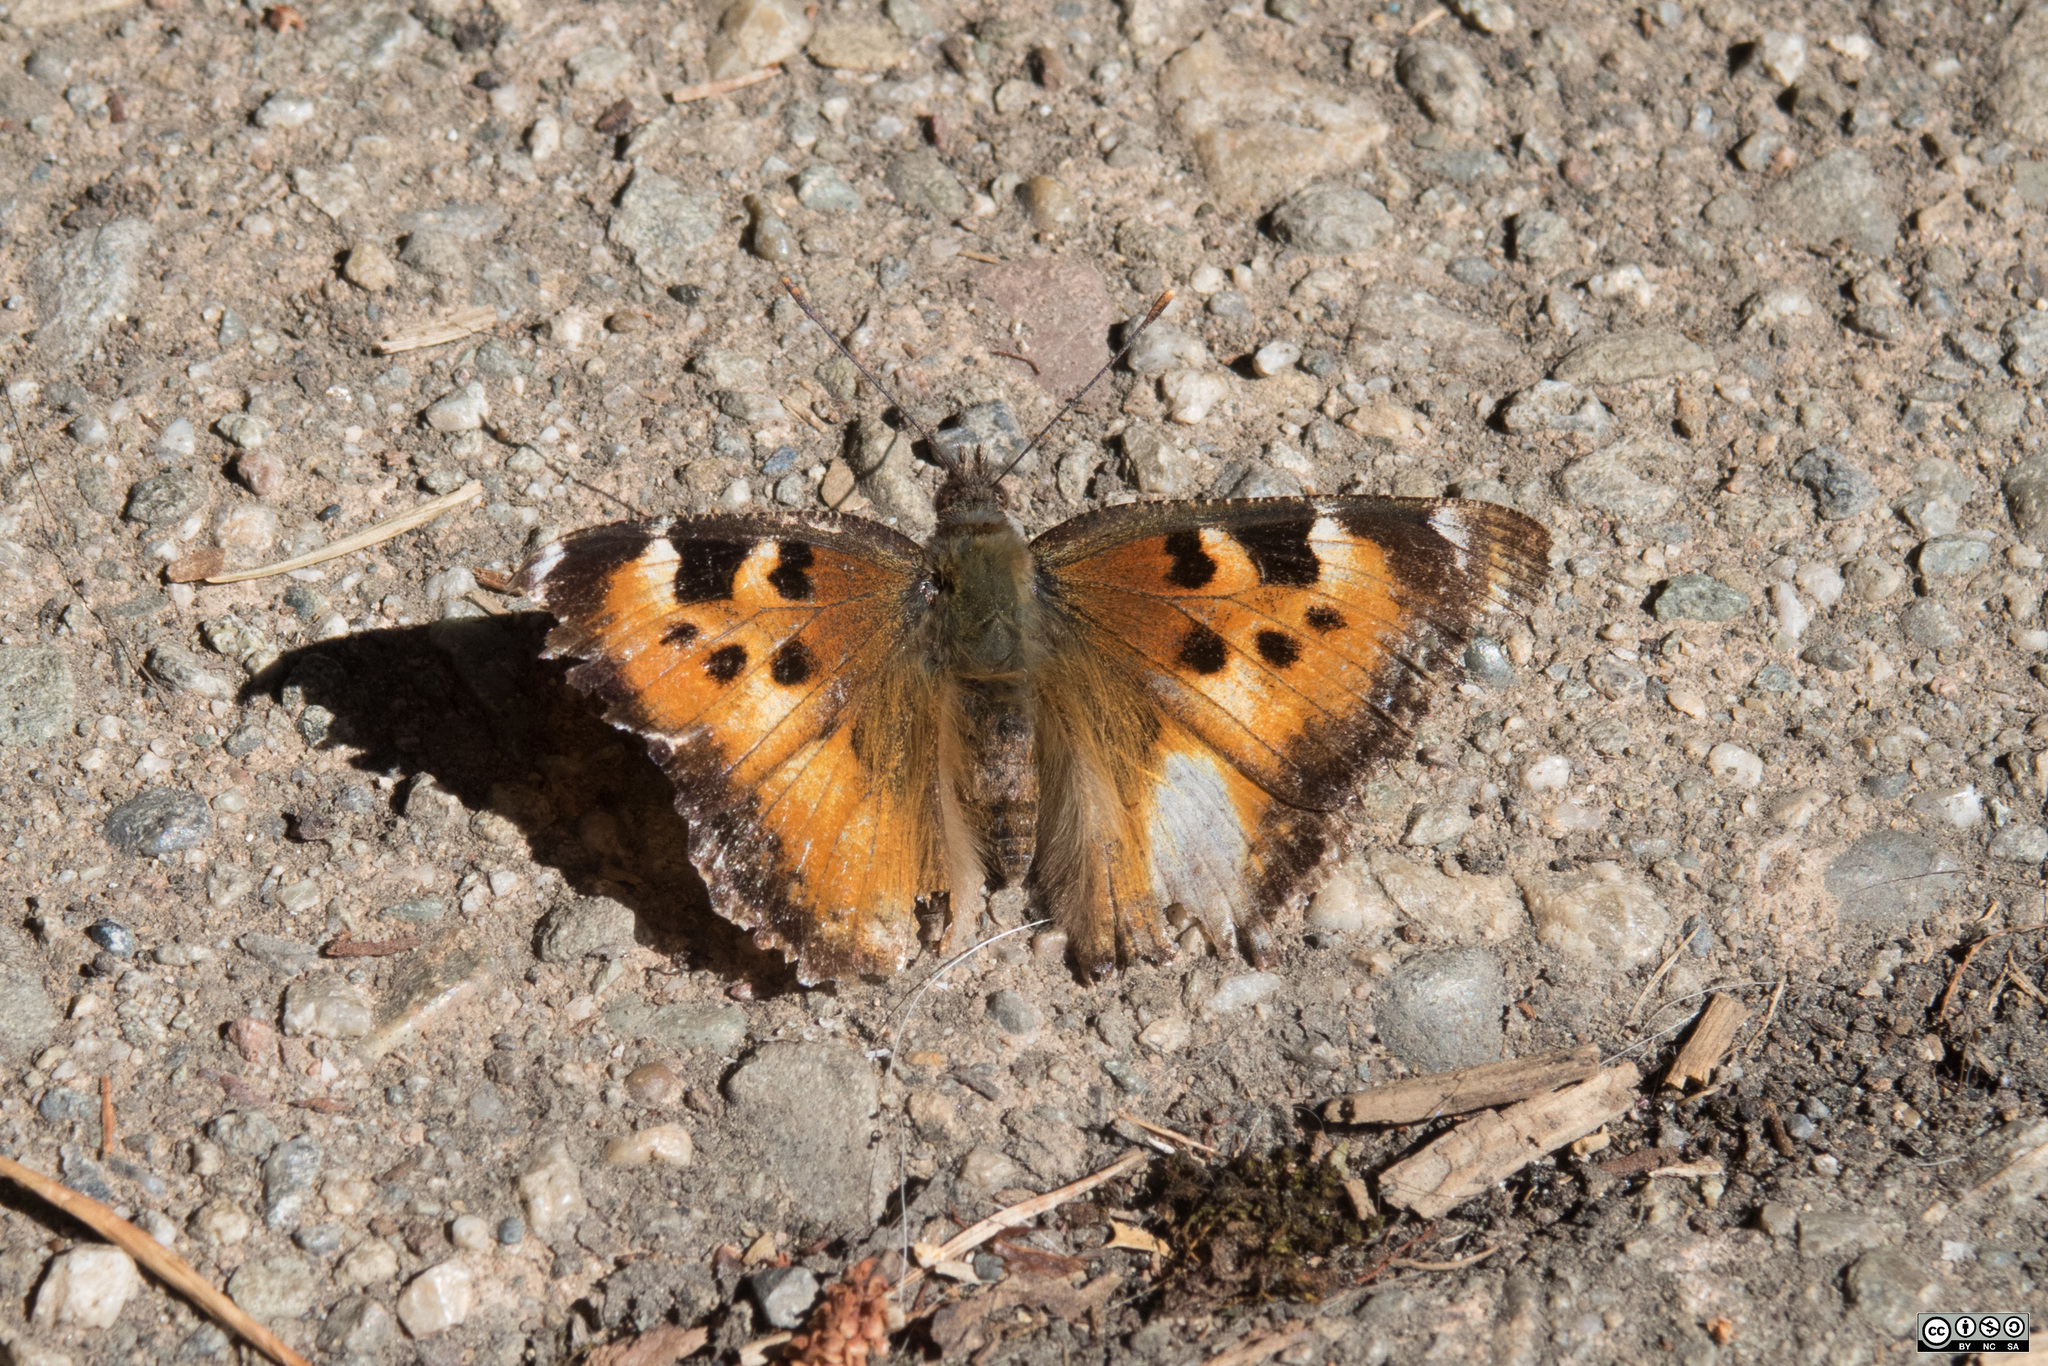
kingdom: Animalia
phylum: Arthropoda
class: Insecta
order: Lepidoptera
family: Nymphalidae
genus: Nymphalis
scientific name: Nymphalis californica
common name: California tortoiseshell
